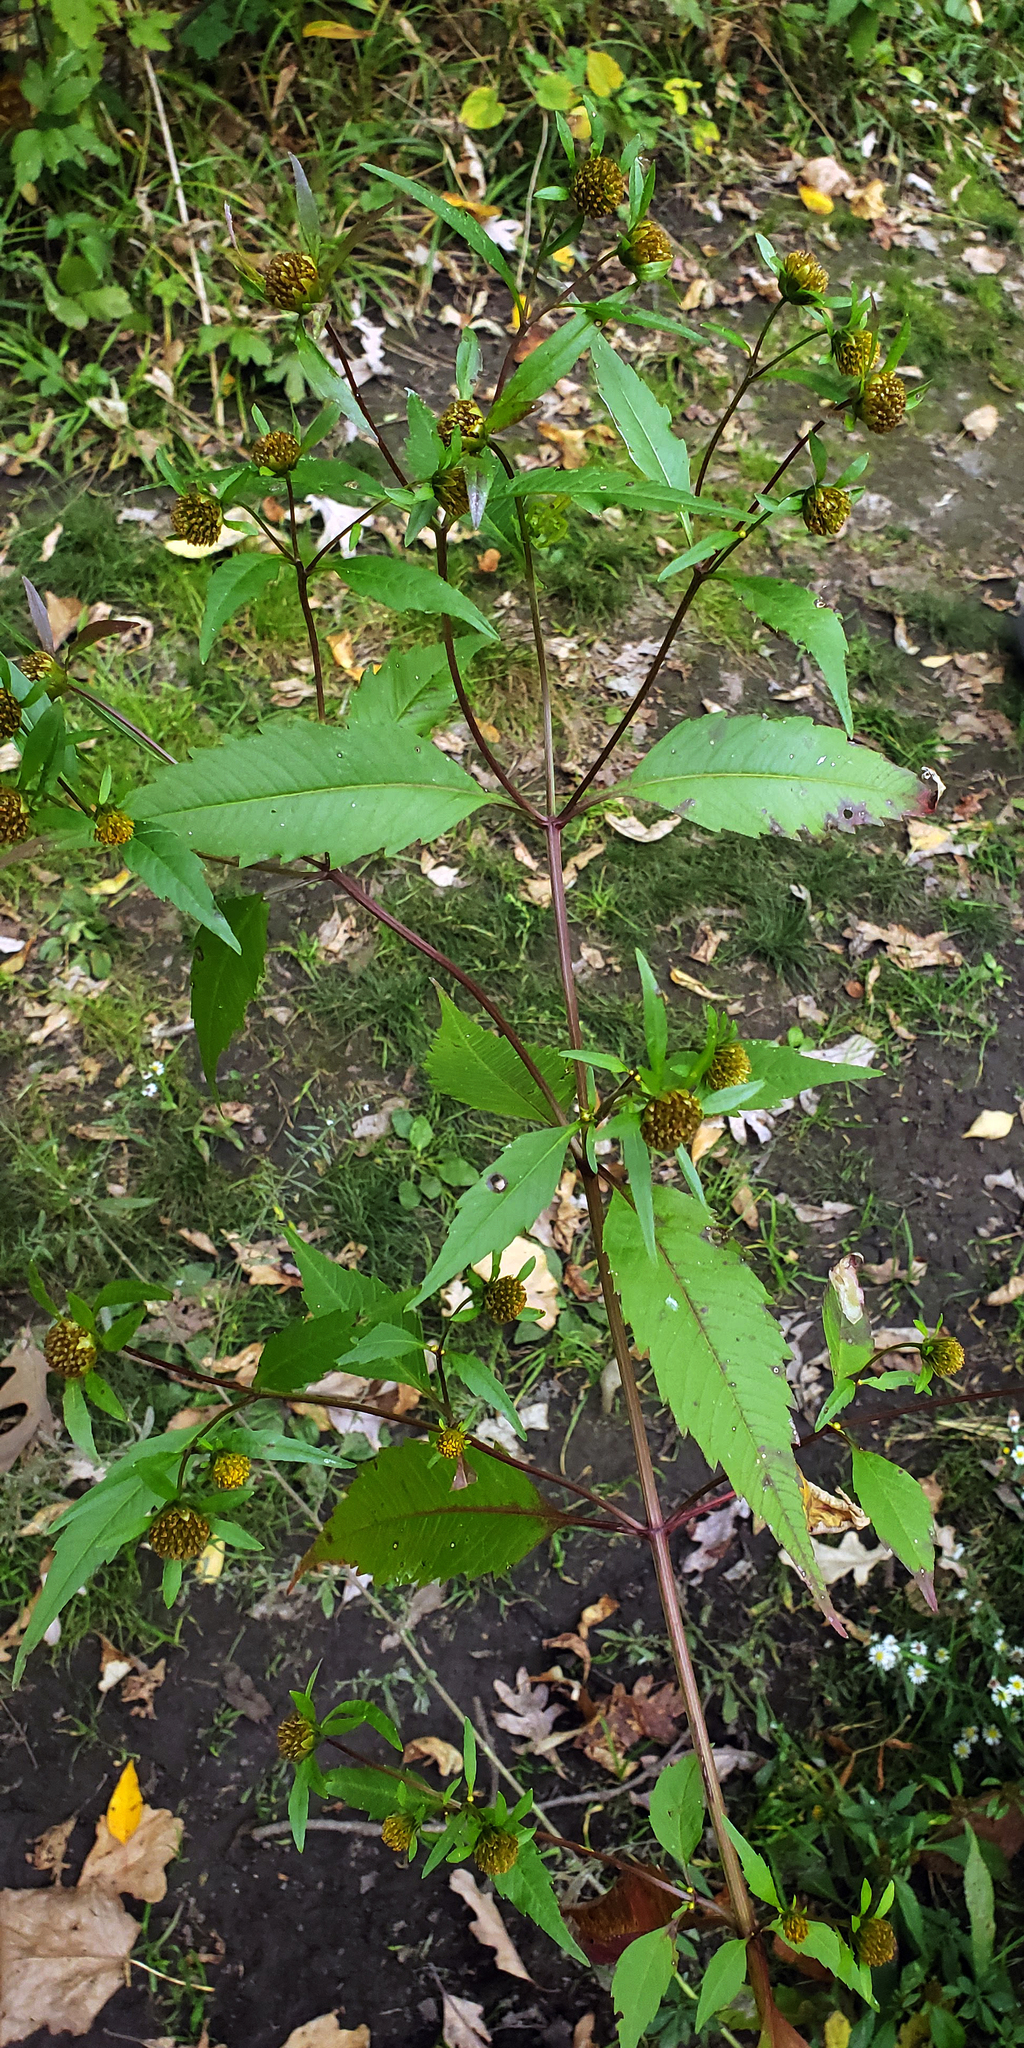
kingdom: Plantae
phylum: Tracheophyta
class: Magnoliopsida
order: Asterales
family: Asteraceae
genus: Bidens
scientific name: Bidens connata
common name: London bur-marigold
